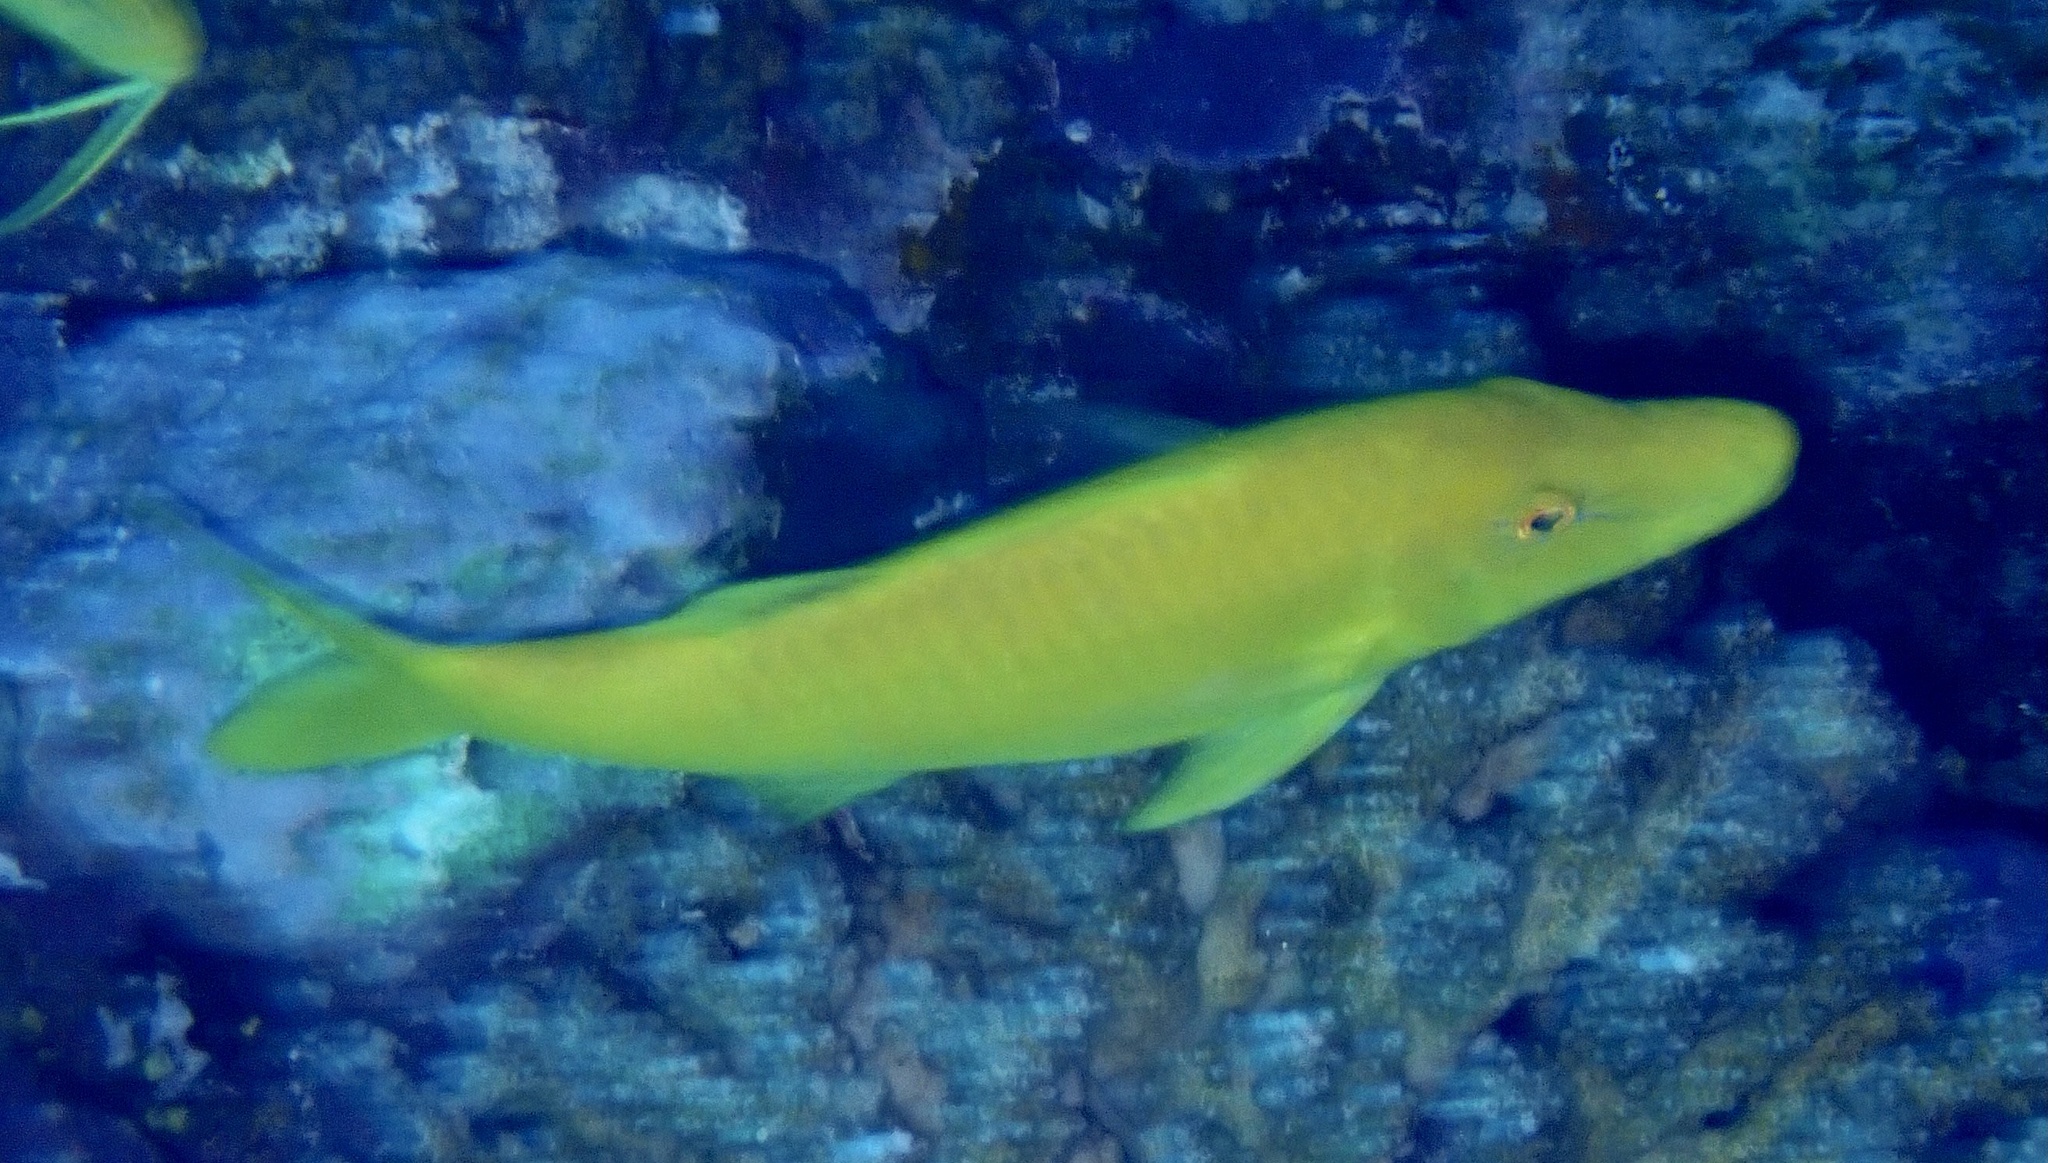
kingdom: Animalia
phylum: Chordata
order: Perciformes
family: Mullidae
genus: Parupeneus
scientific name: Parupeneus cyclostomus
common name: Goldsaddle goatfish
